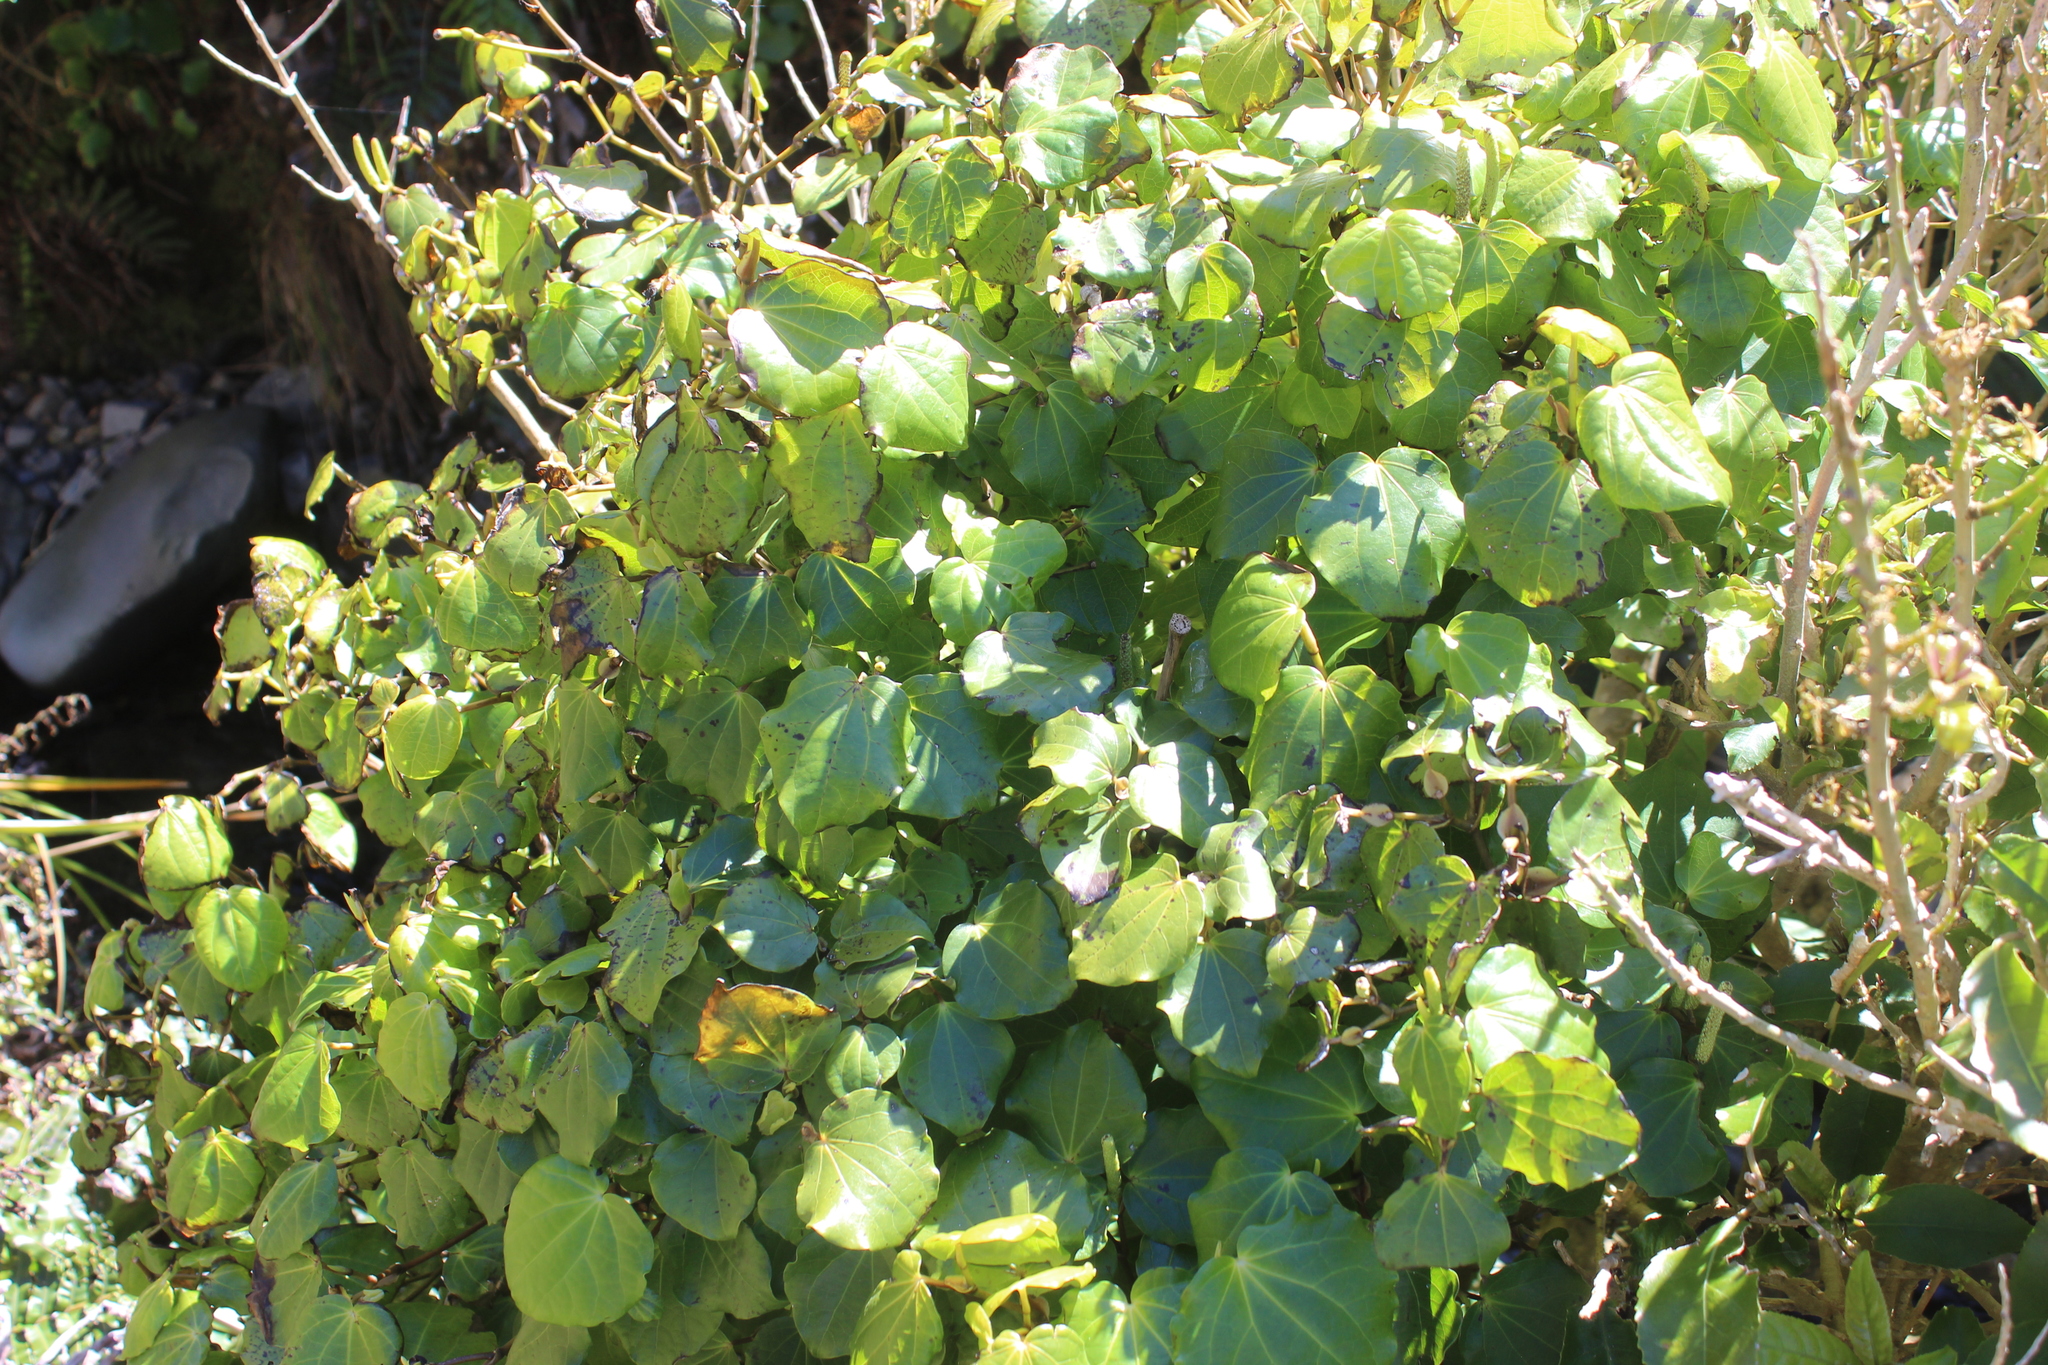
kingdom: Plantae
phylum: Tracheophyta
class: Magnoliopsida
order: Piperales
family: Piperaceae
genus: Macropiper
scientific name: Macropiper excelsum
